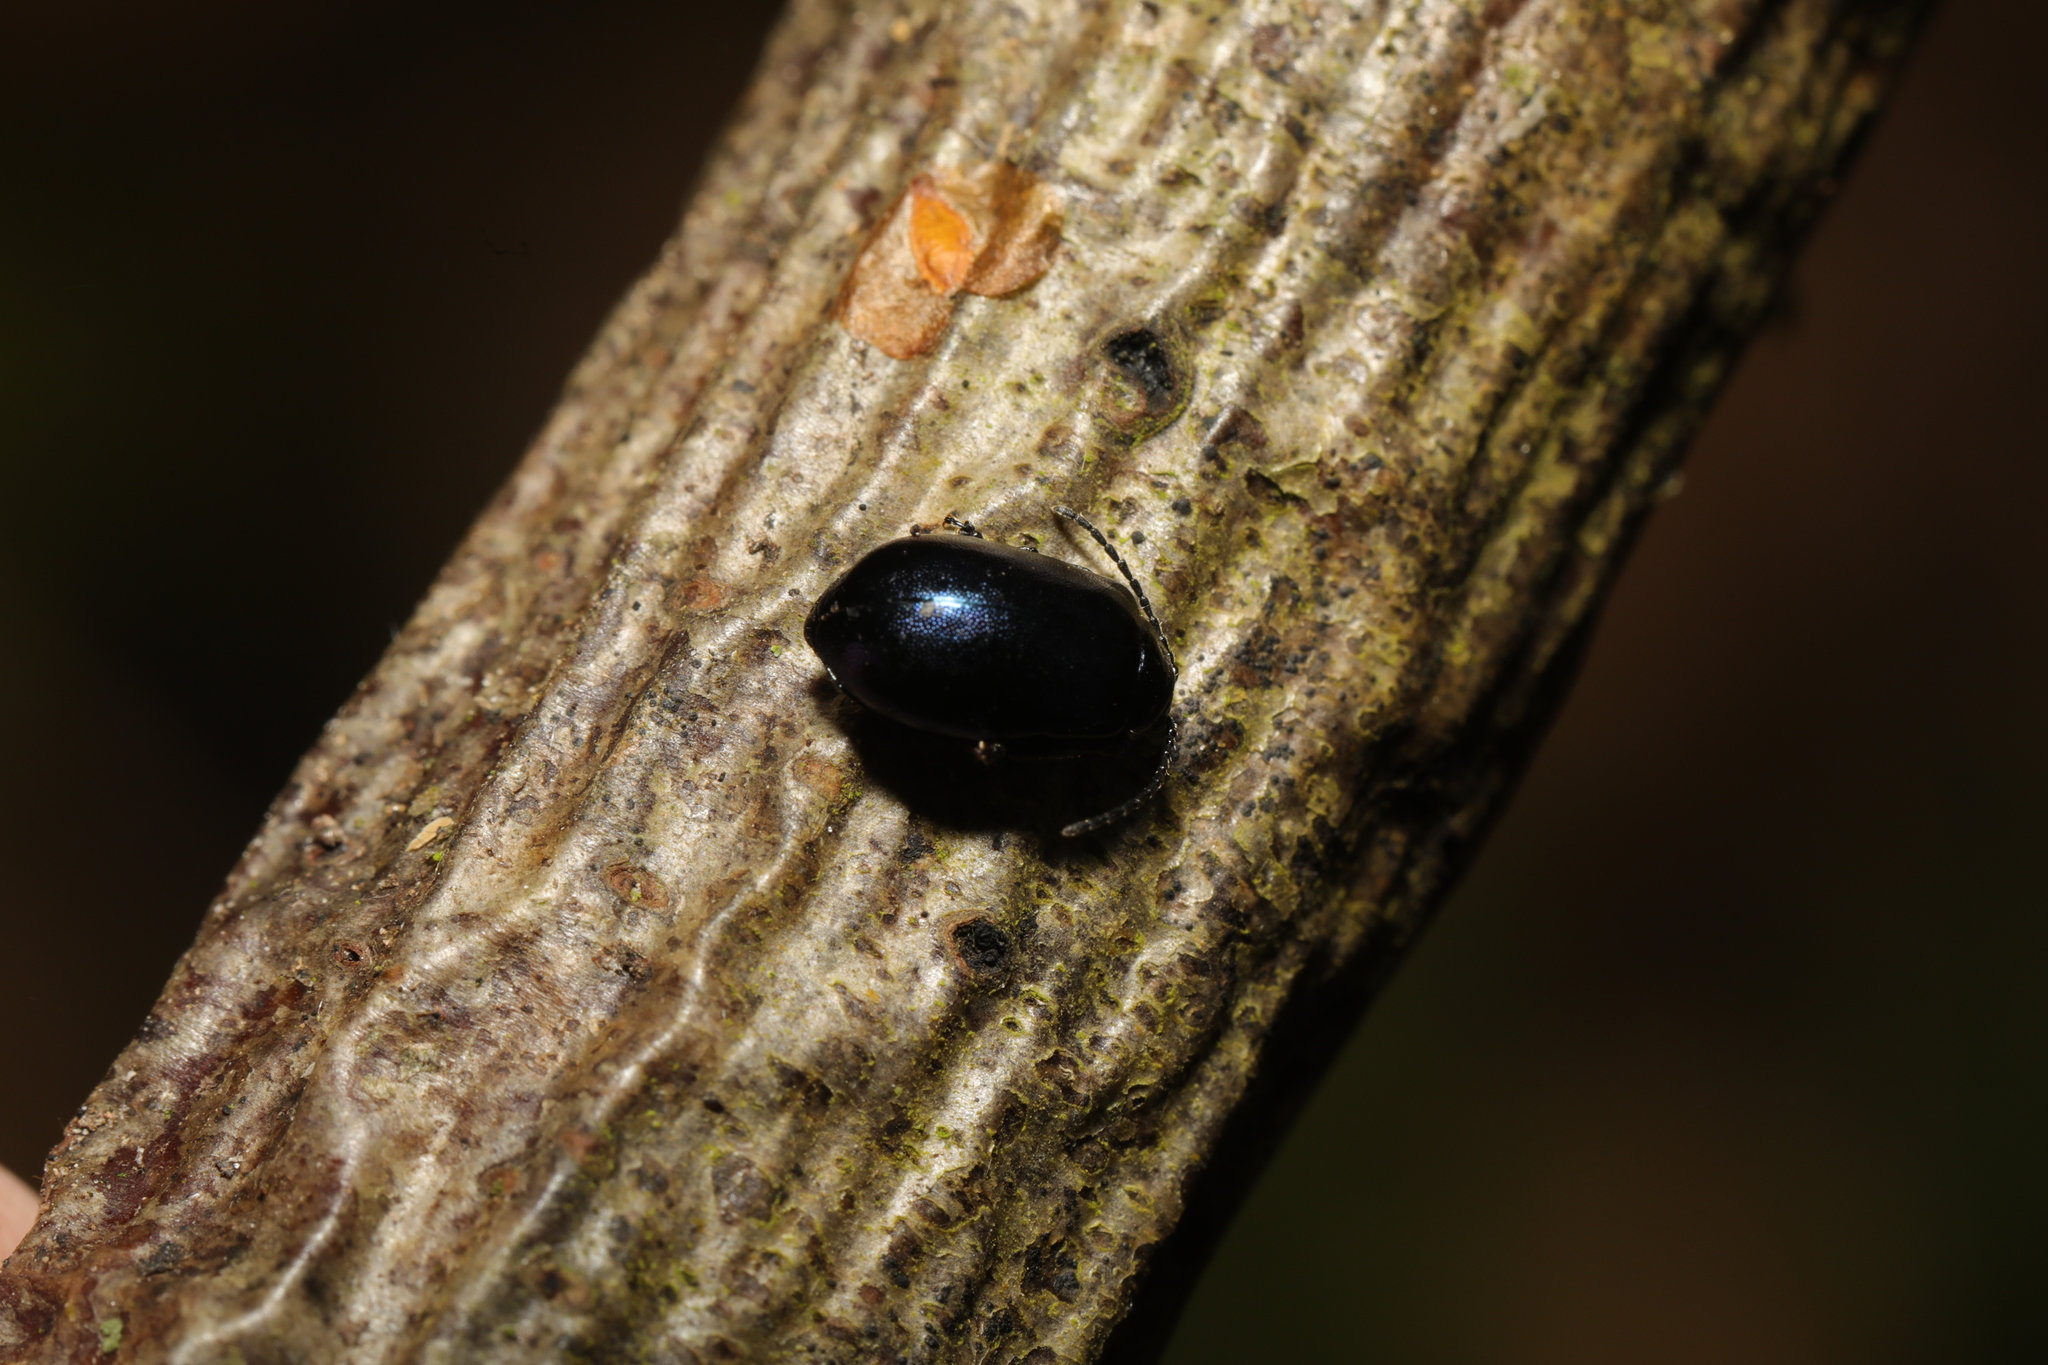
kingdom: Animalia
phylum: Arthropoda
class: Insecta
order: Coleoptera
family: Chrysomelidae
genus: Agelastica
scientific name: Agelastica alni
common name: Alder leaf beetle
